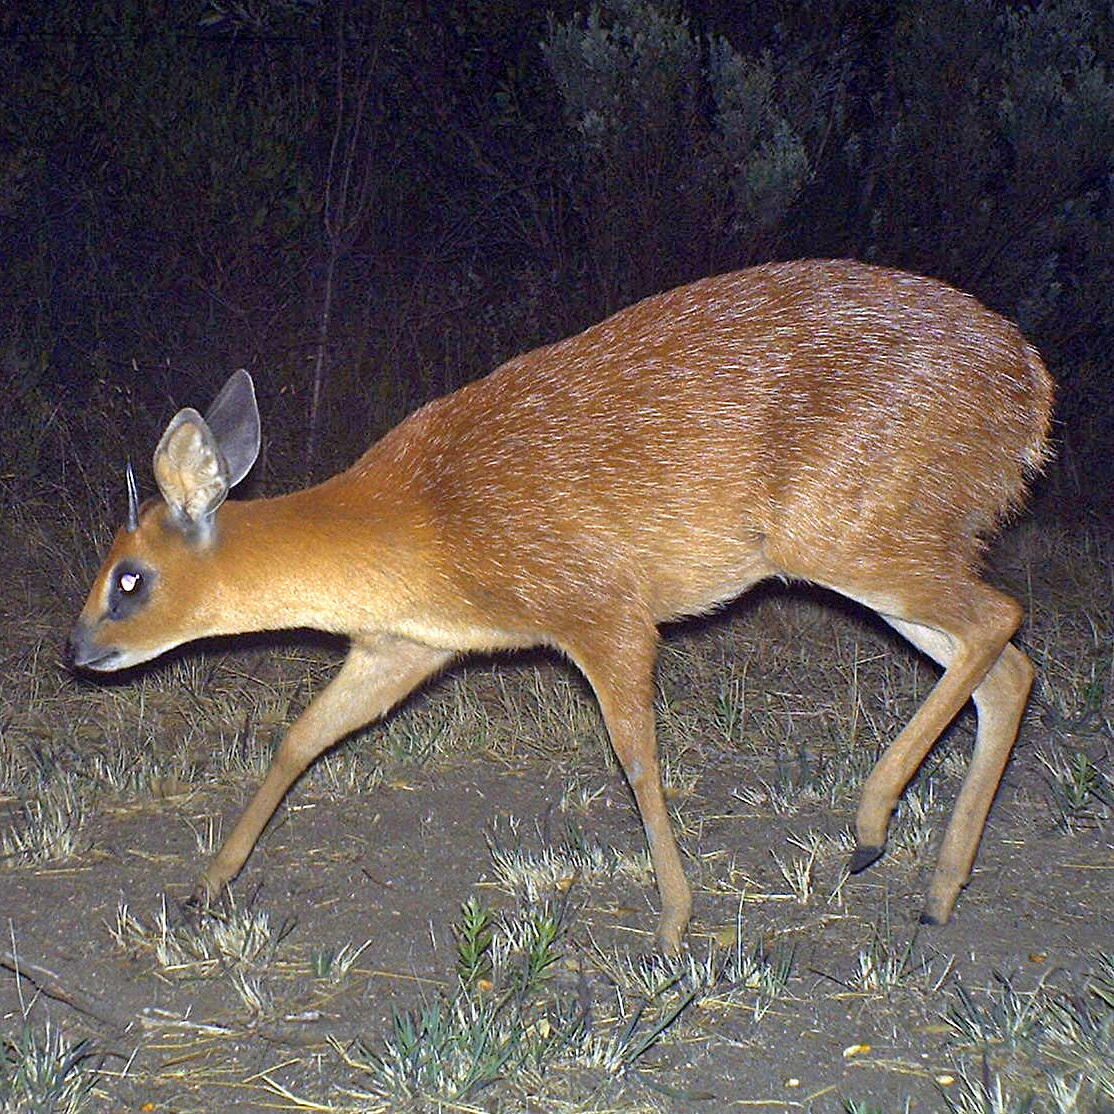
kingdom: Animalia
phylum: Chordata
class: Mammalia
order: Artiodactyla
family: Bovidae
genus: Raphicerus
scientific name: Raphicerus melanotis
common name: Cape grysbok
